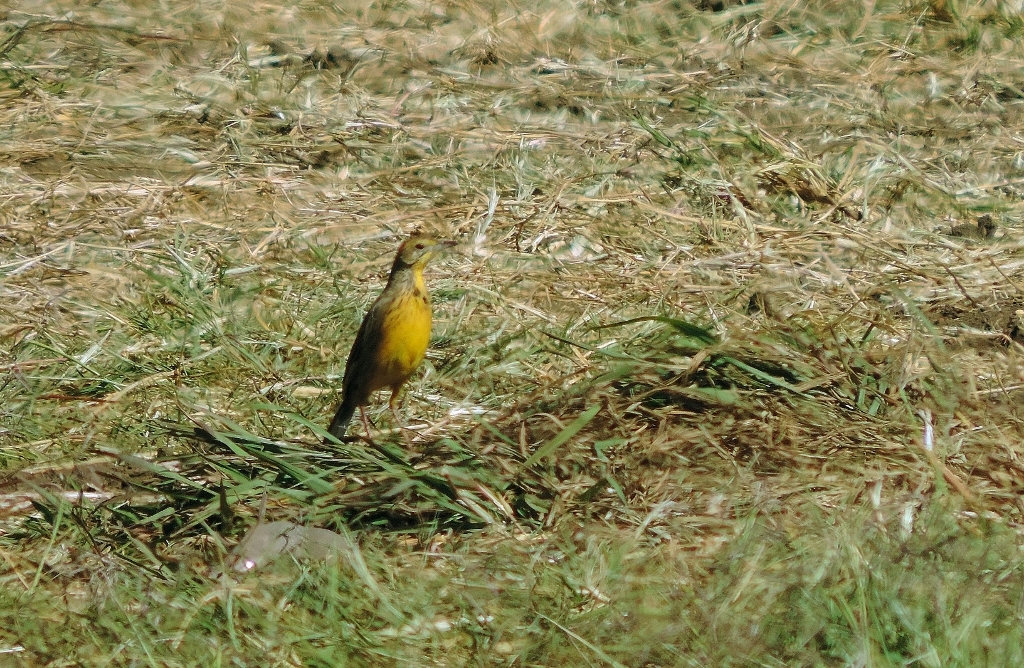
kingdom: Animalia
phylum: Chordata
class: Aves
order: Passeriformes
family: Motacillidae
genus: Macronyx
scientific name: Macronyx croceus
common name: Yellow-throated longclaw
